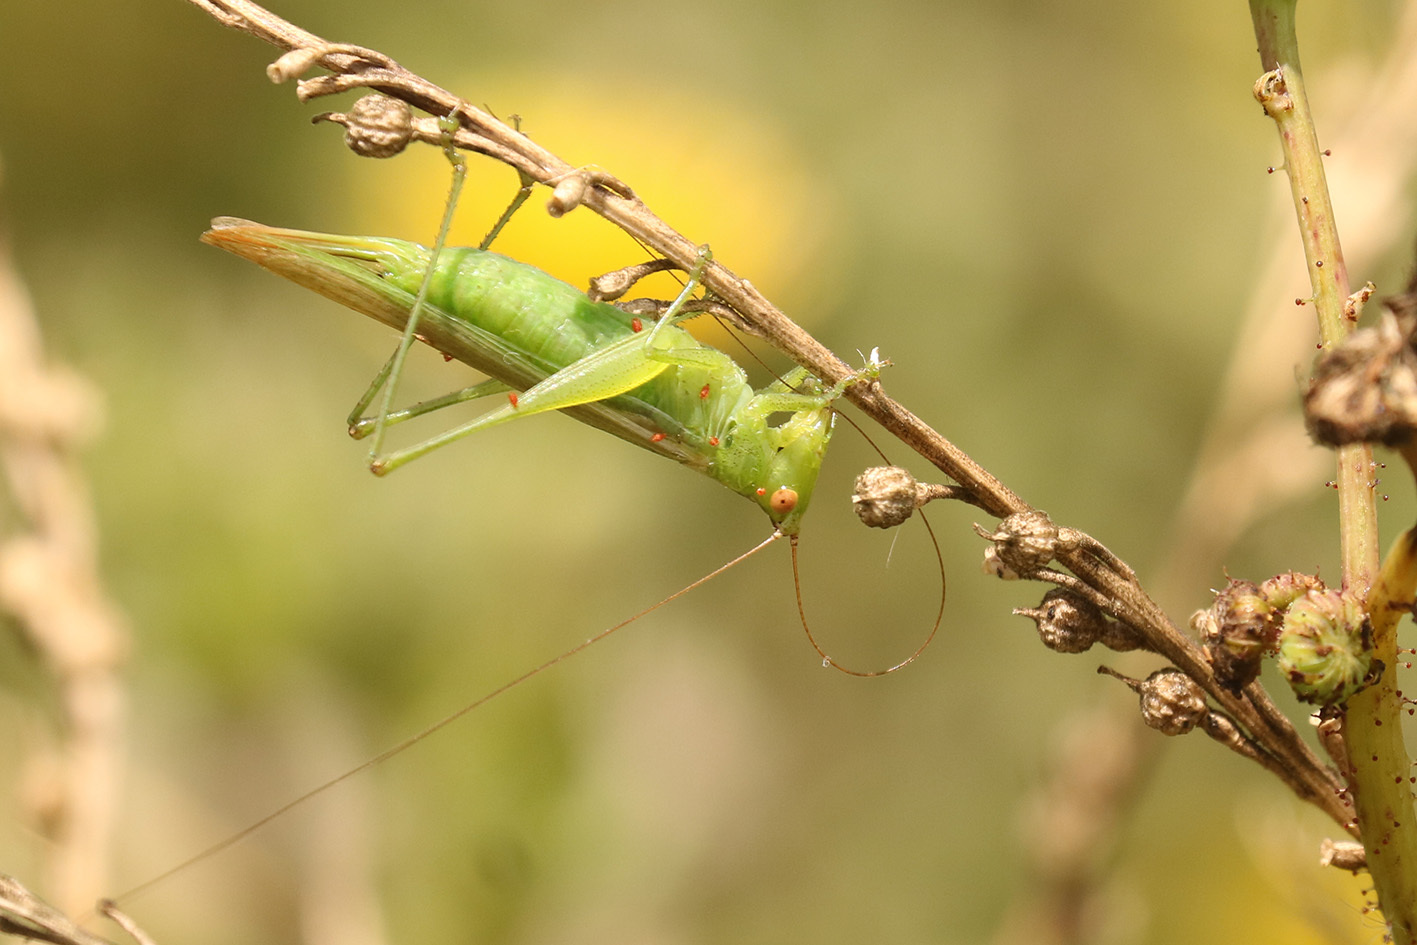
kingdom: Animalia
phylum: Arthropoda
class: Insecta
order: Orthoptera
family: Tettigoniidae
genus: Conocephalus
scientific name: Conocephalus longipes
